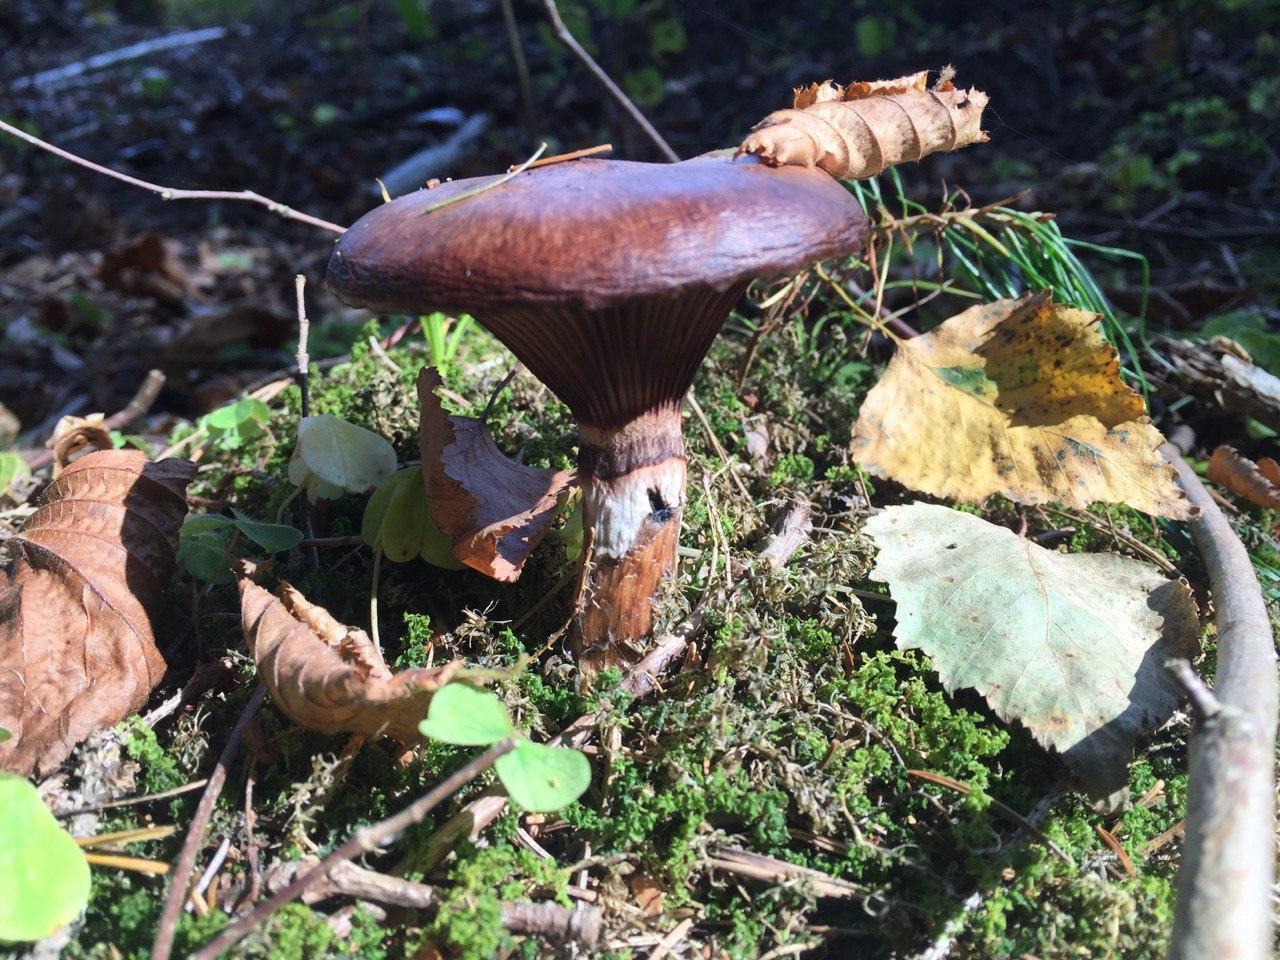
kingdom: Fungi
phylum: Basidiomycota
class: Agaricomycetes
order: Boletales
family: Gomphidiaceae
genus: Gomphidius
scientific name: Gomphidius glutinosus
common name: Slimy spike
